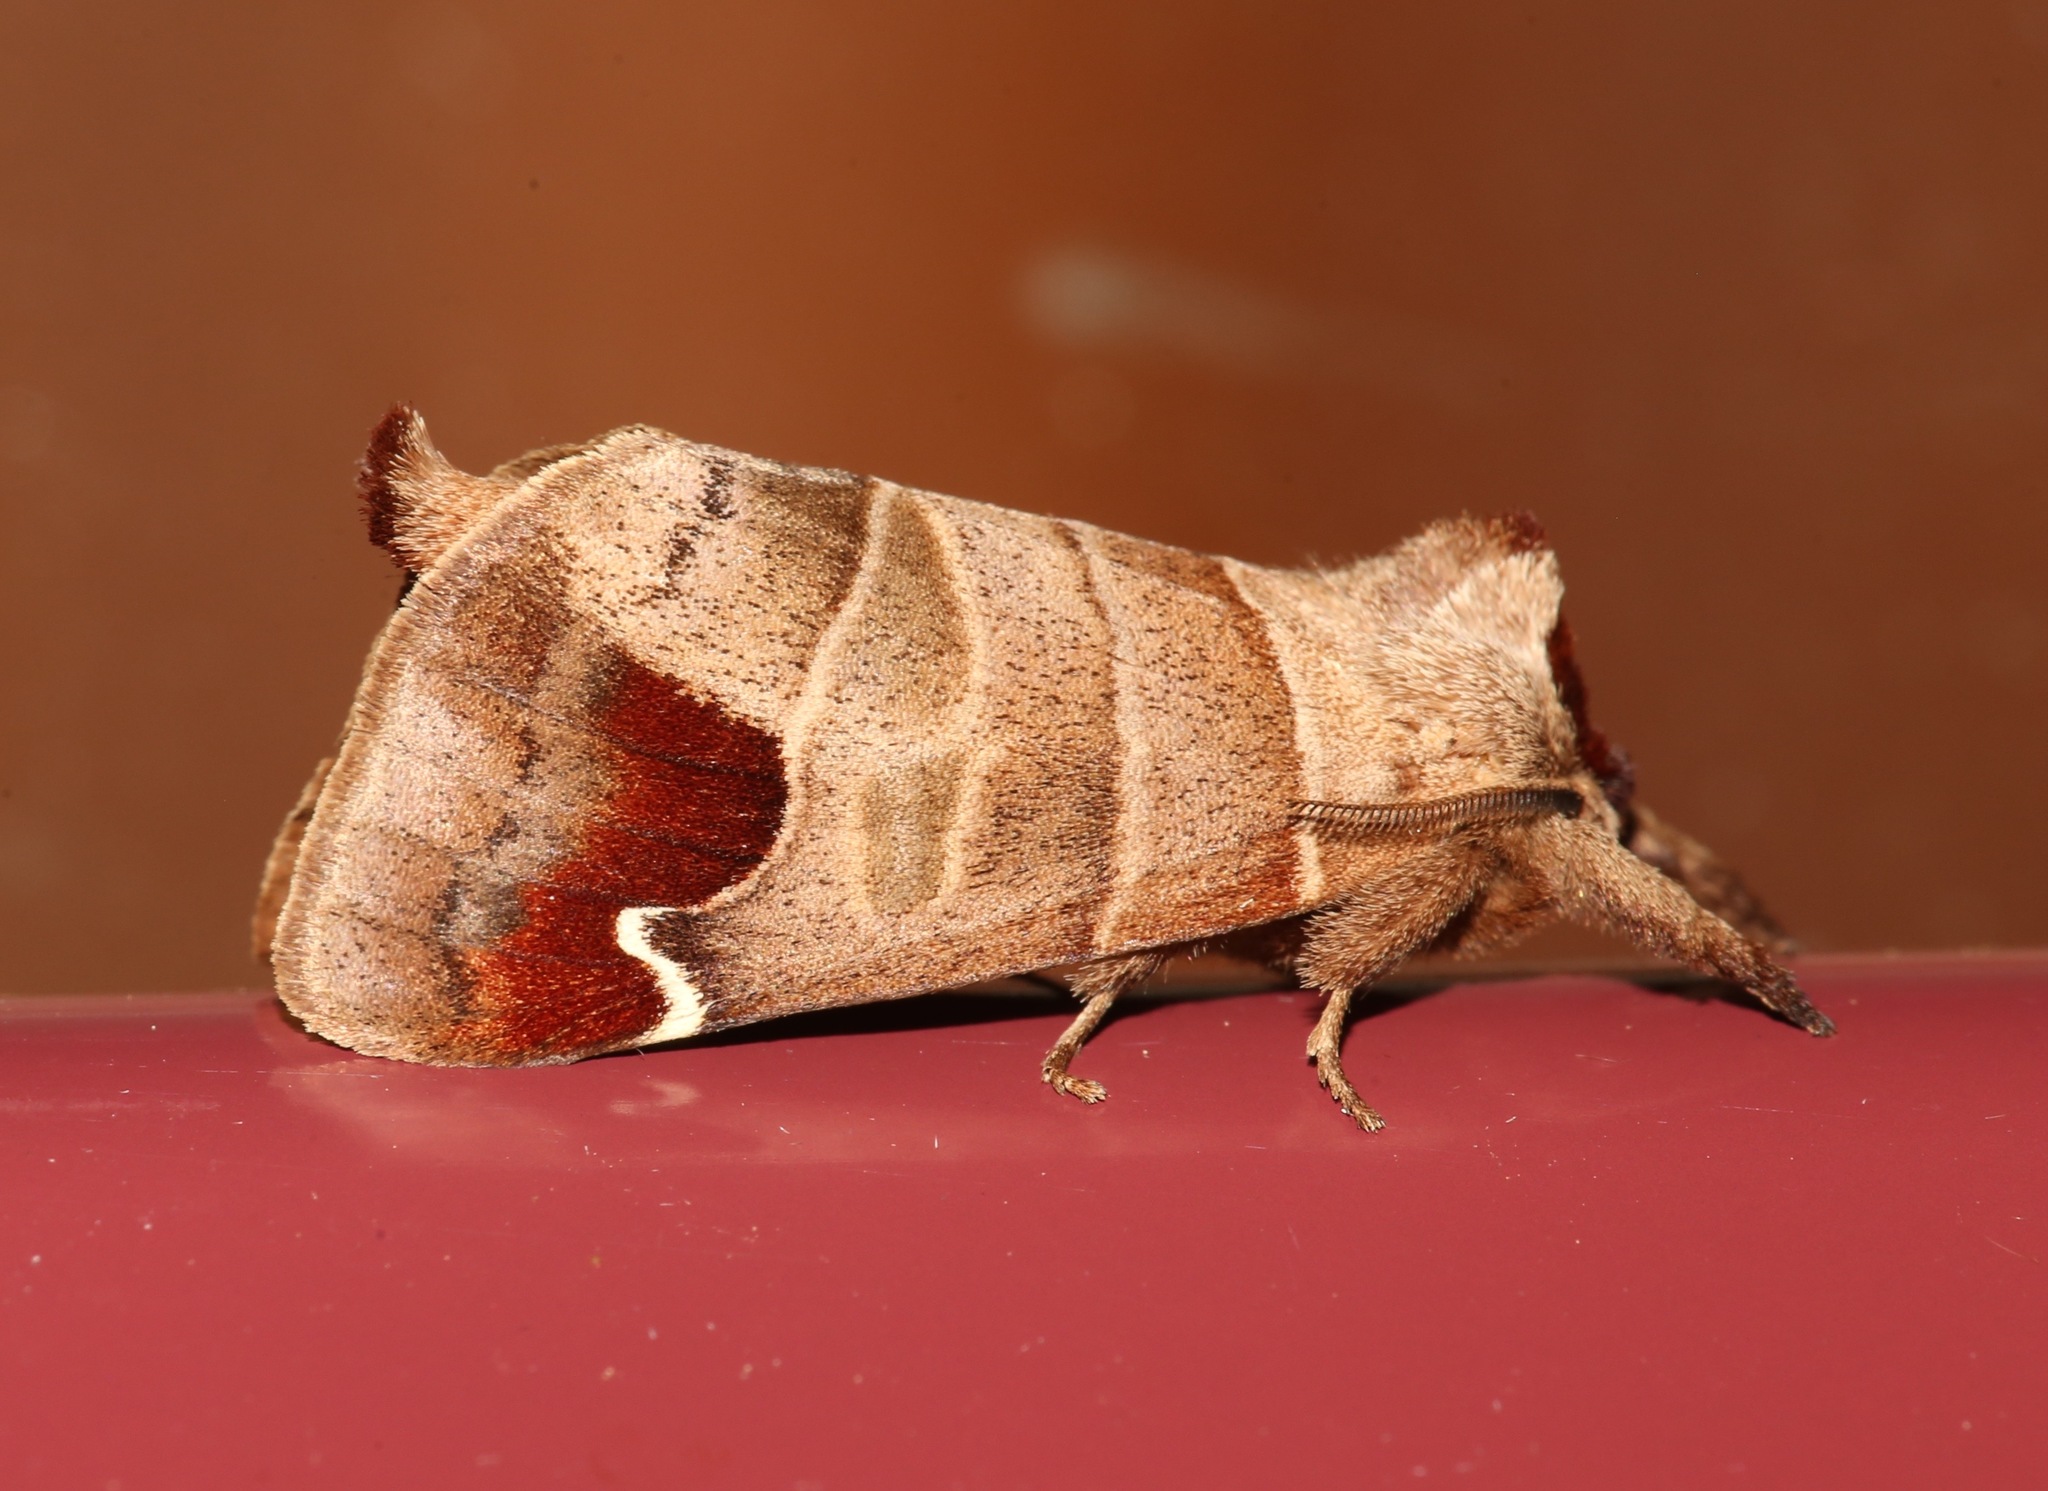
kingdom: Animalia
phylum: Arthropoda
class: Insecta
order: Lepidoptera
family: Notodontidae
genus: Clostera
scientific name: Clostera albosigma
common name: Sigmoid prominent
